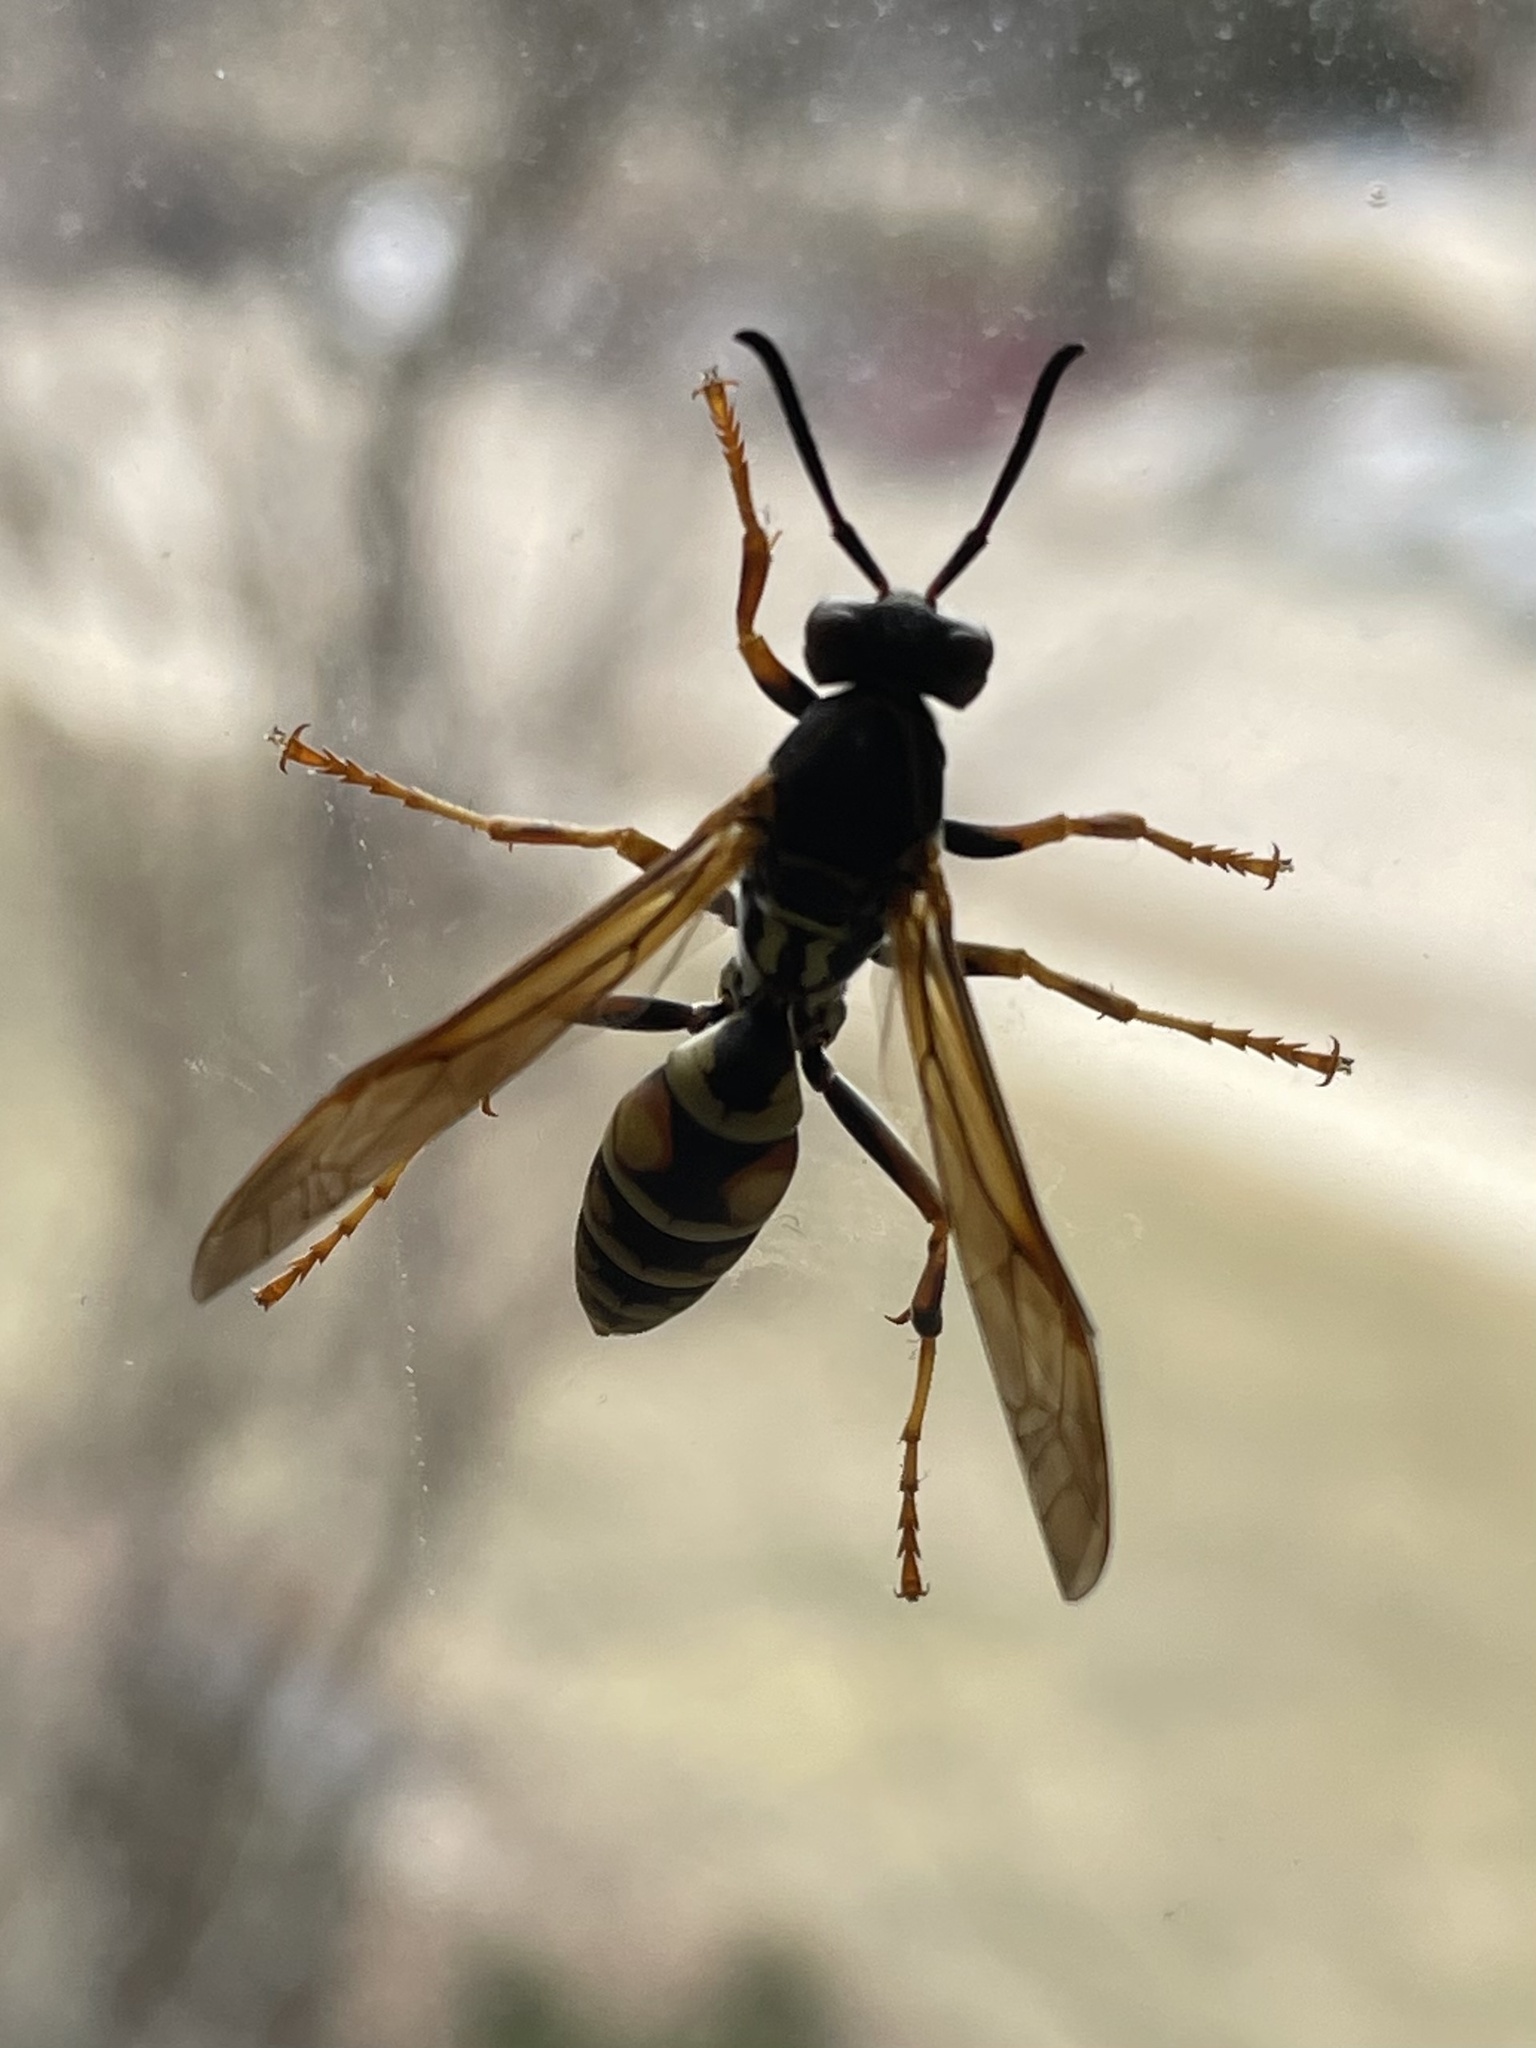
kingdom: Animalia
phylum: Arthropoda
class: Insecta
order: Hymenoptera
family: Eumenidae
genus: Polistes
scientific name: Polistes fuscatus
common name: Dark paper wasp
